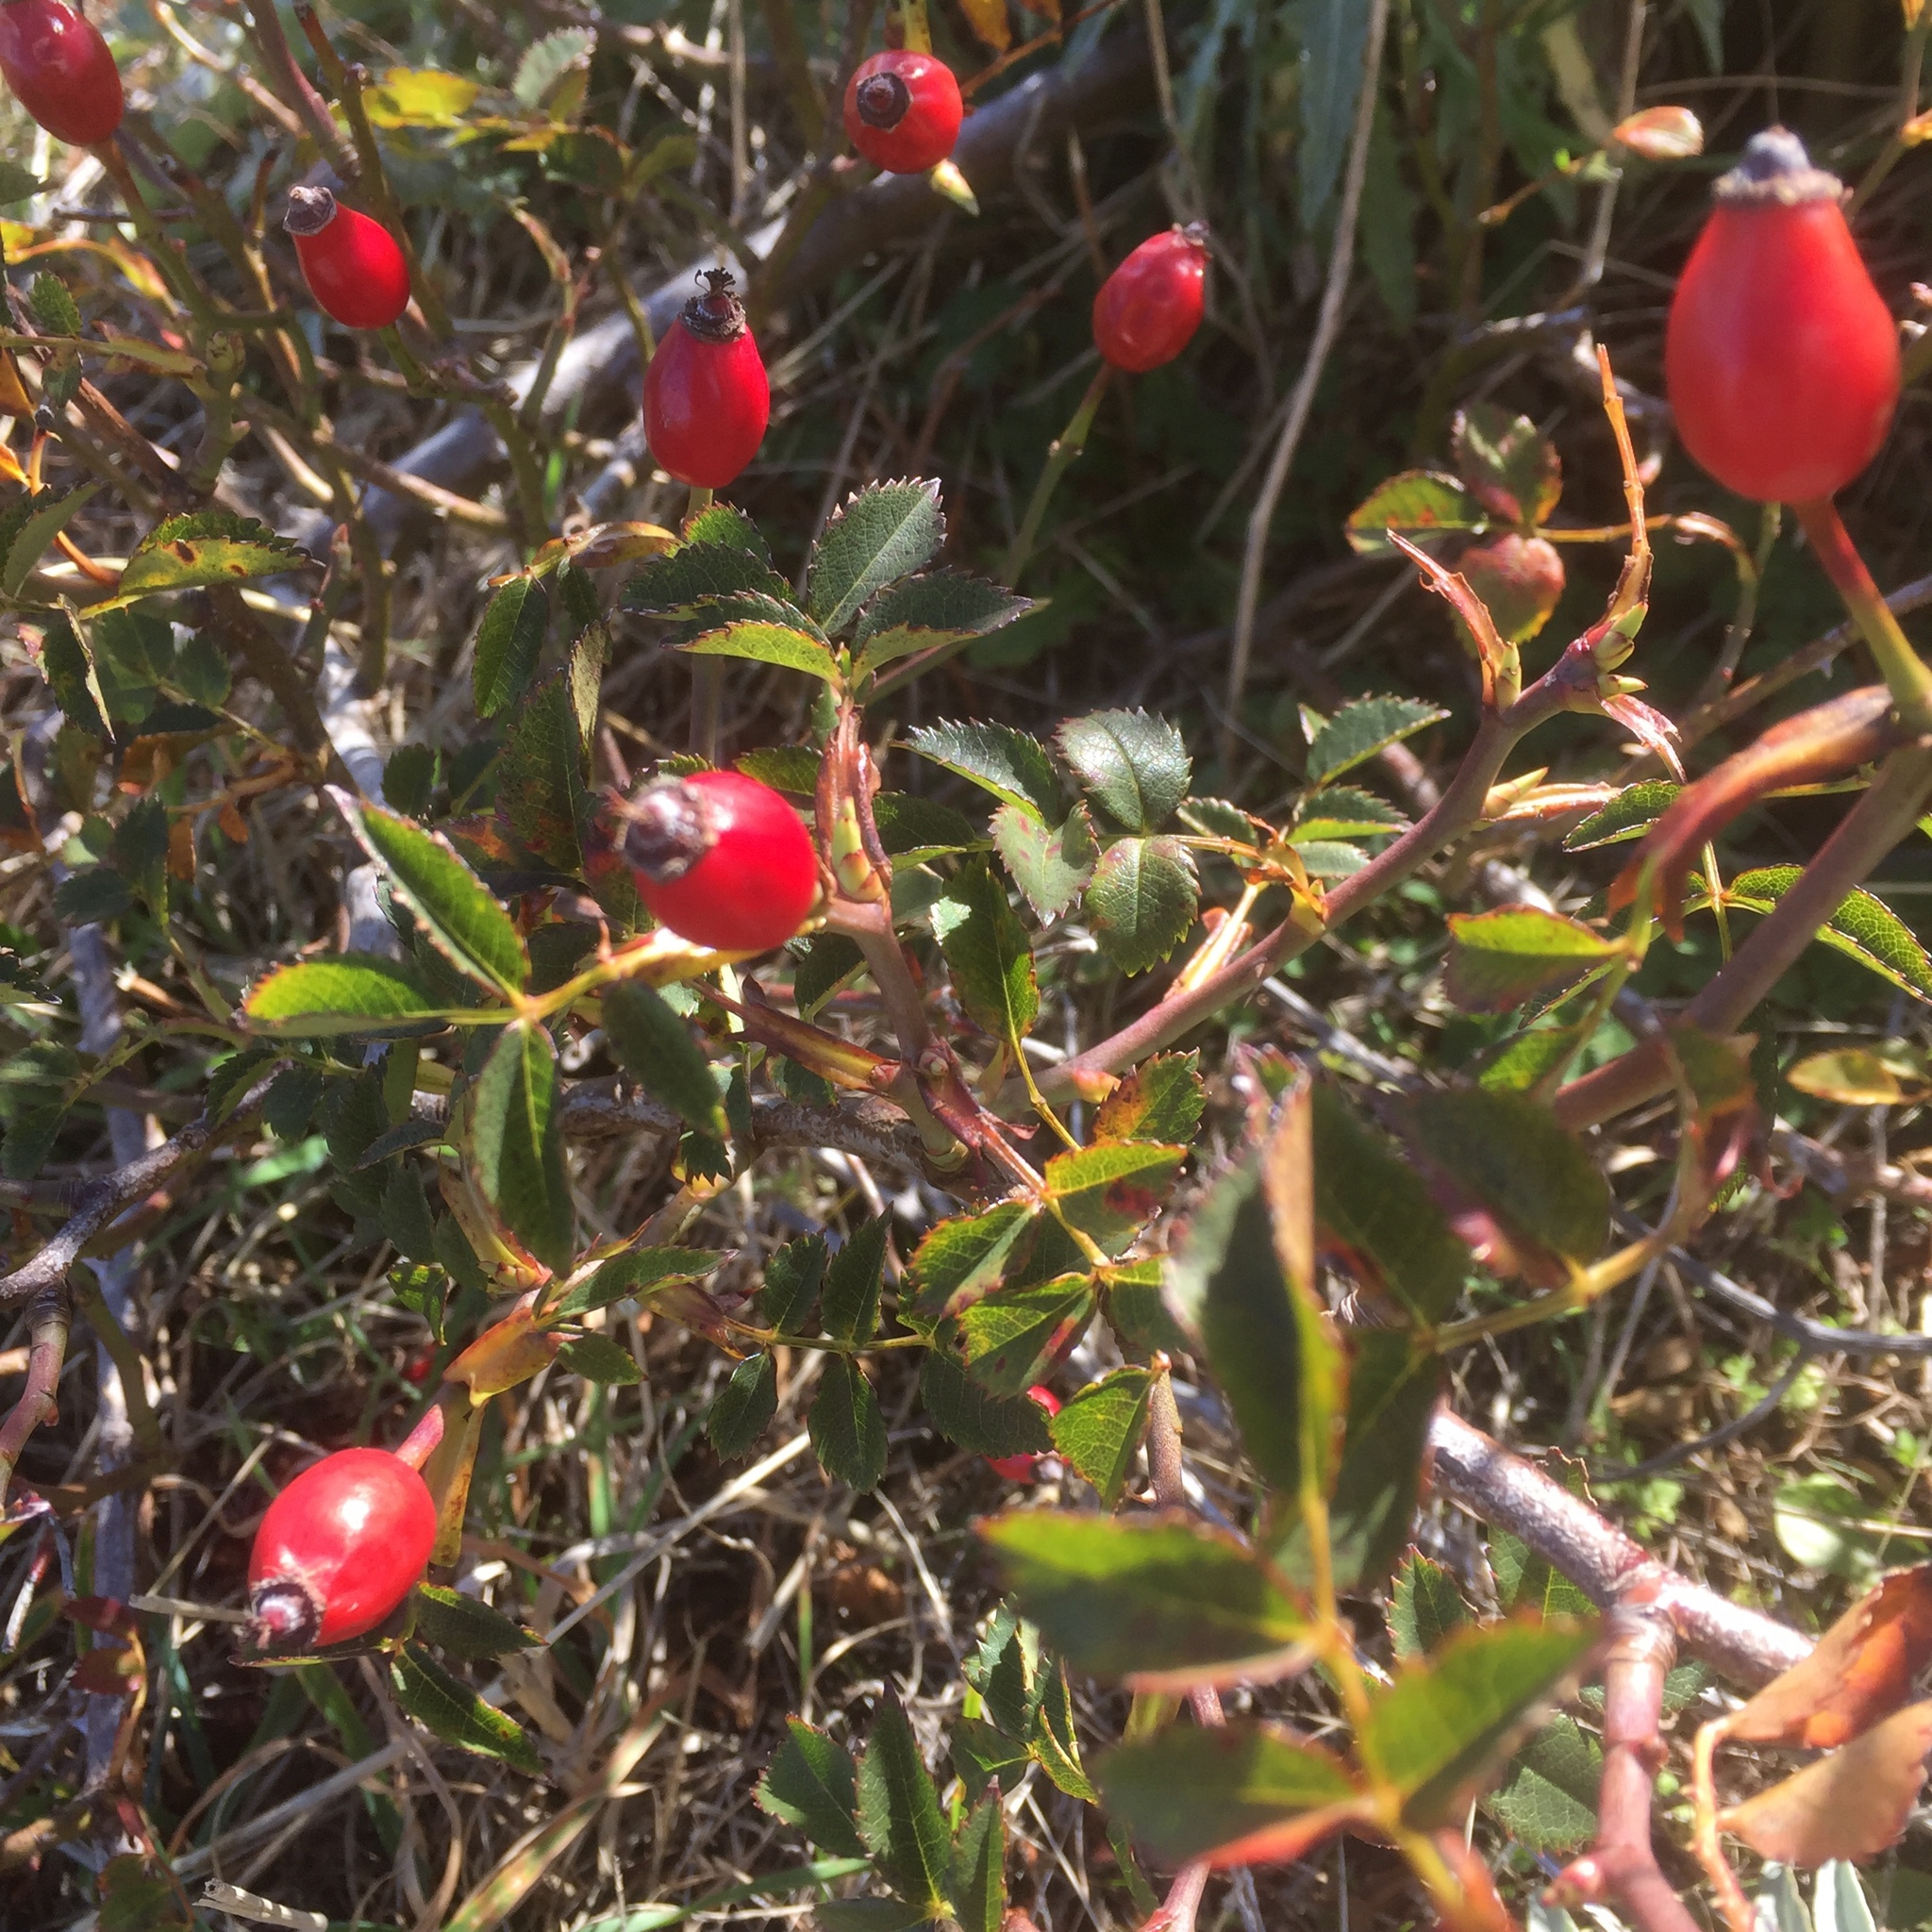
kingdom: Plantae
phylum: Tracheophyta
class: Magnoliopsida
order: Rosales
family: Rosaceae
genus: Rosa
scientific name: Rosa canina
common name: Dog rose
